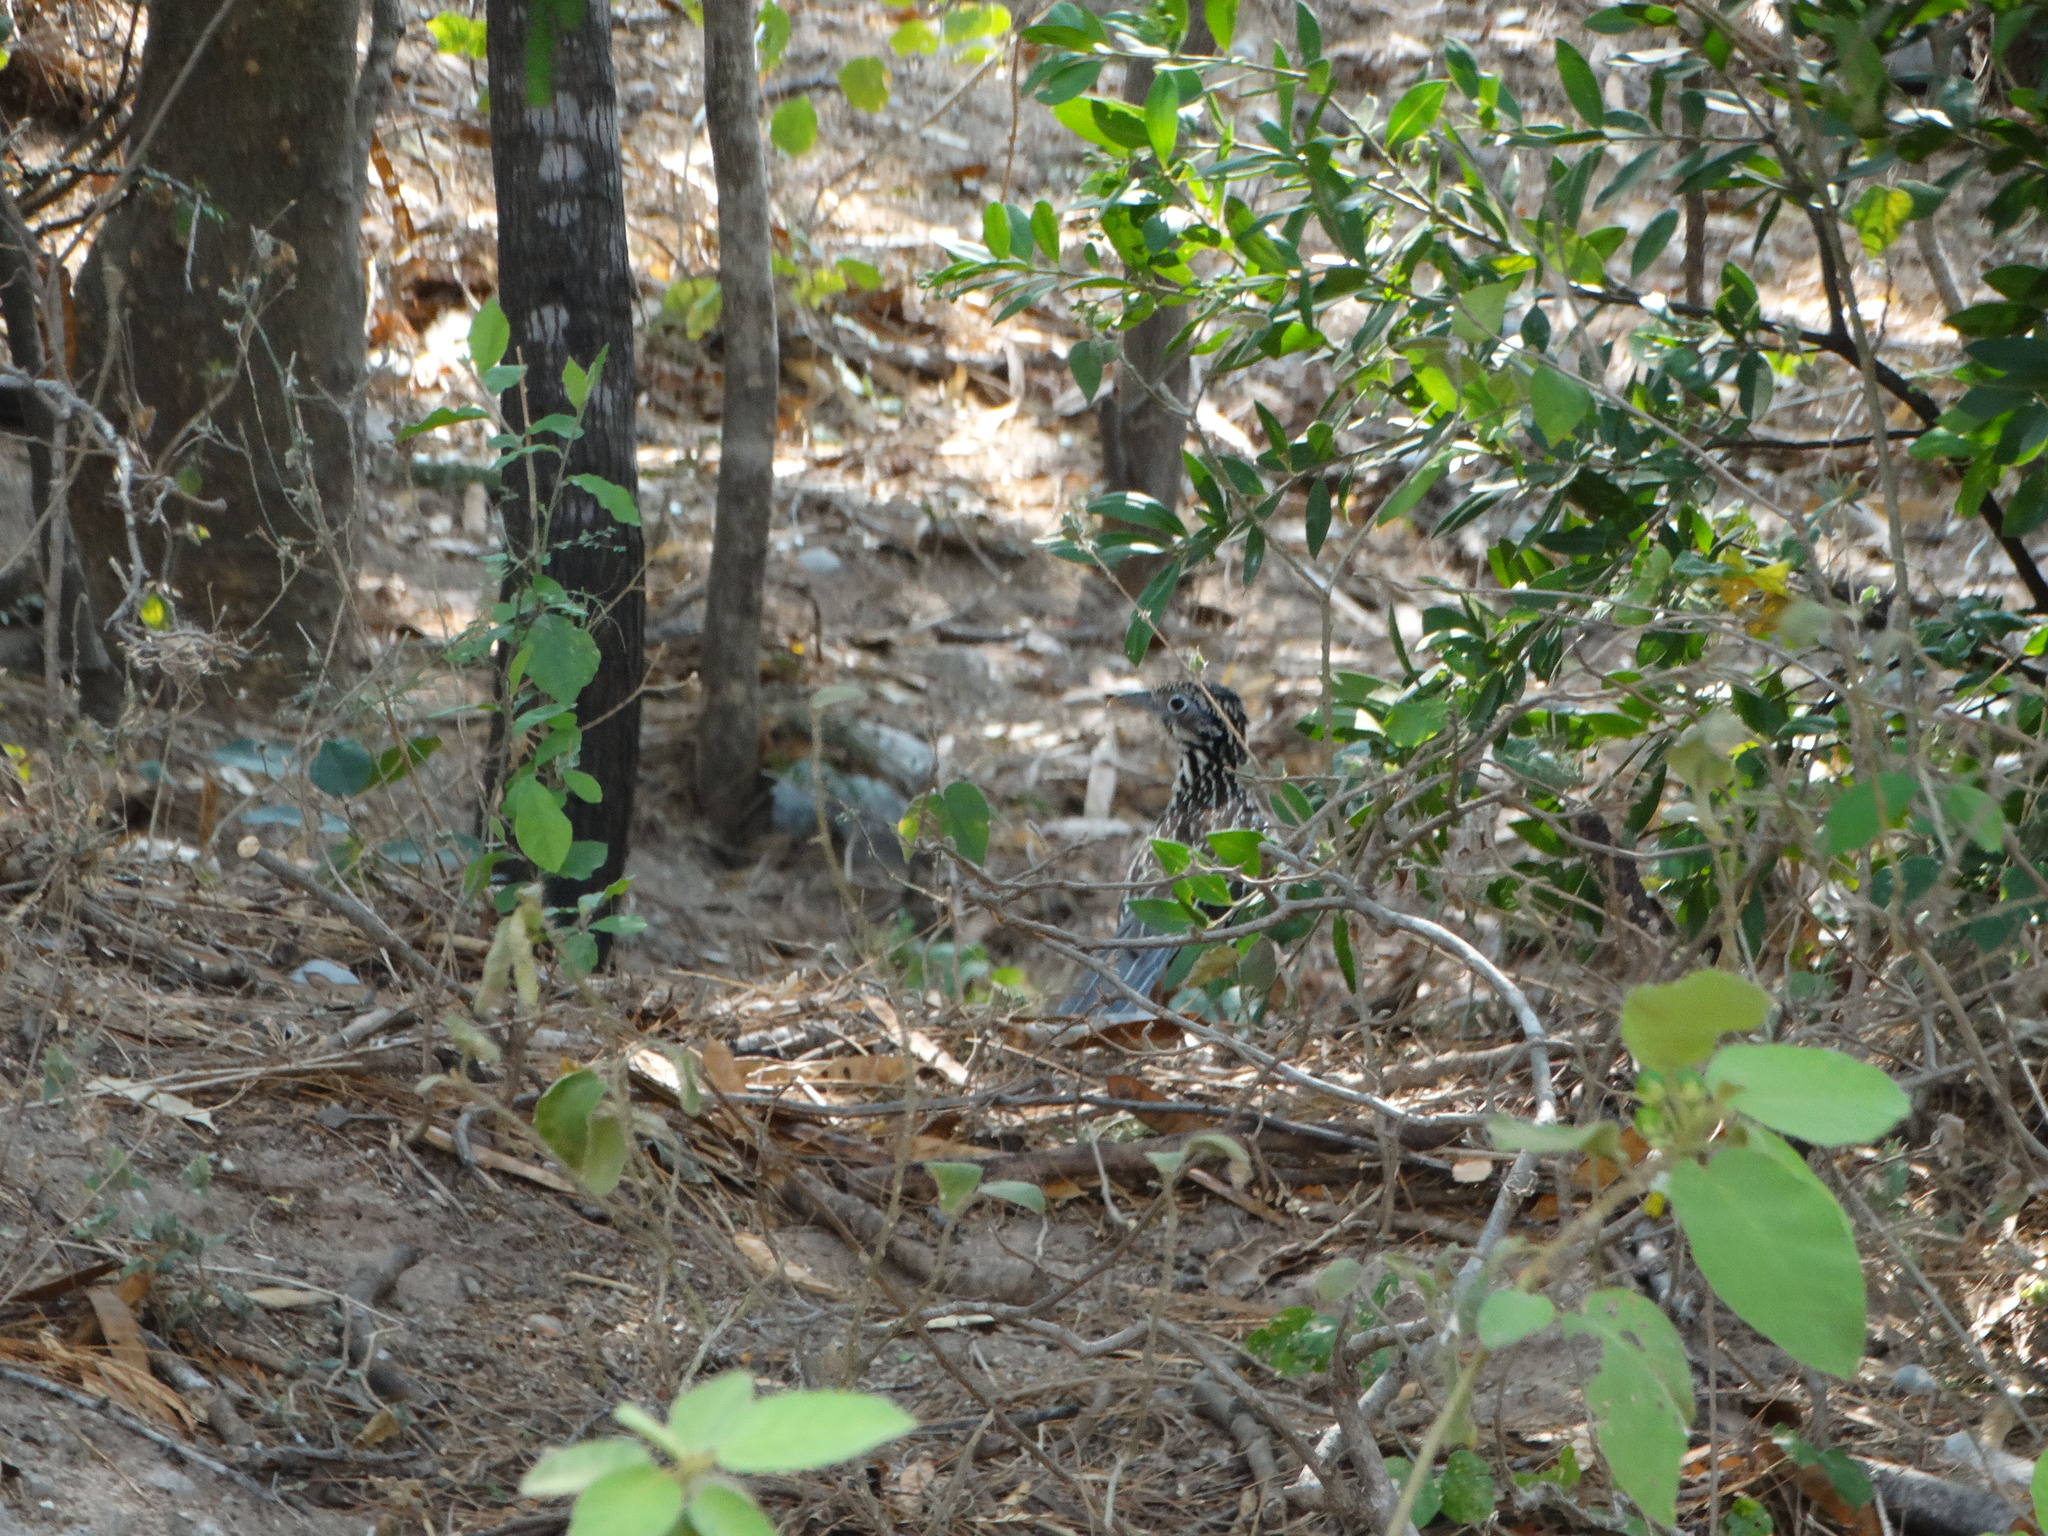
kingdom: Animalia
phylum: Chordata
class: Aves
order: Cuculiformes
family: Cuculidae
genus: Geococcyx
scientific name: Geococcyx velox
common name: Lesser roadrunner
